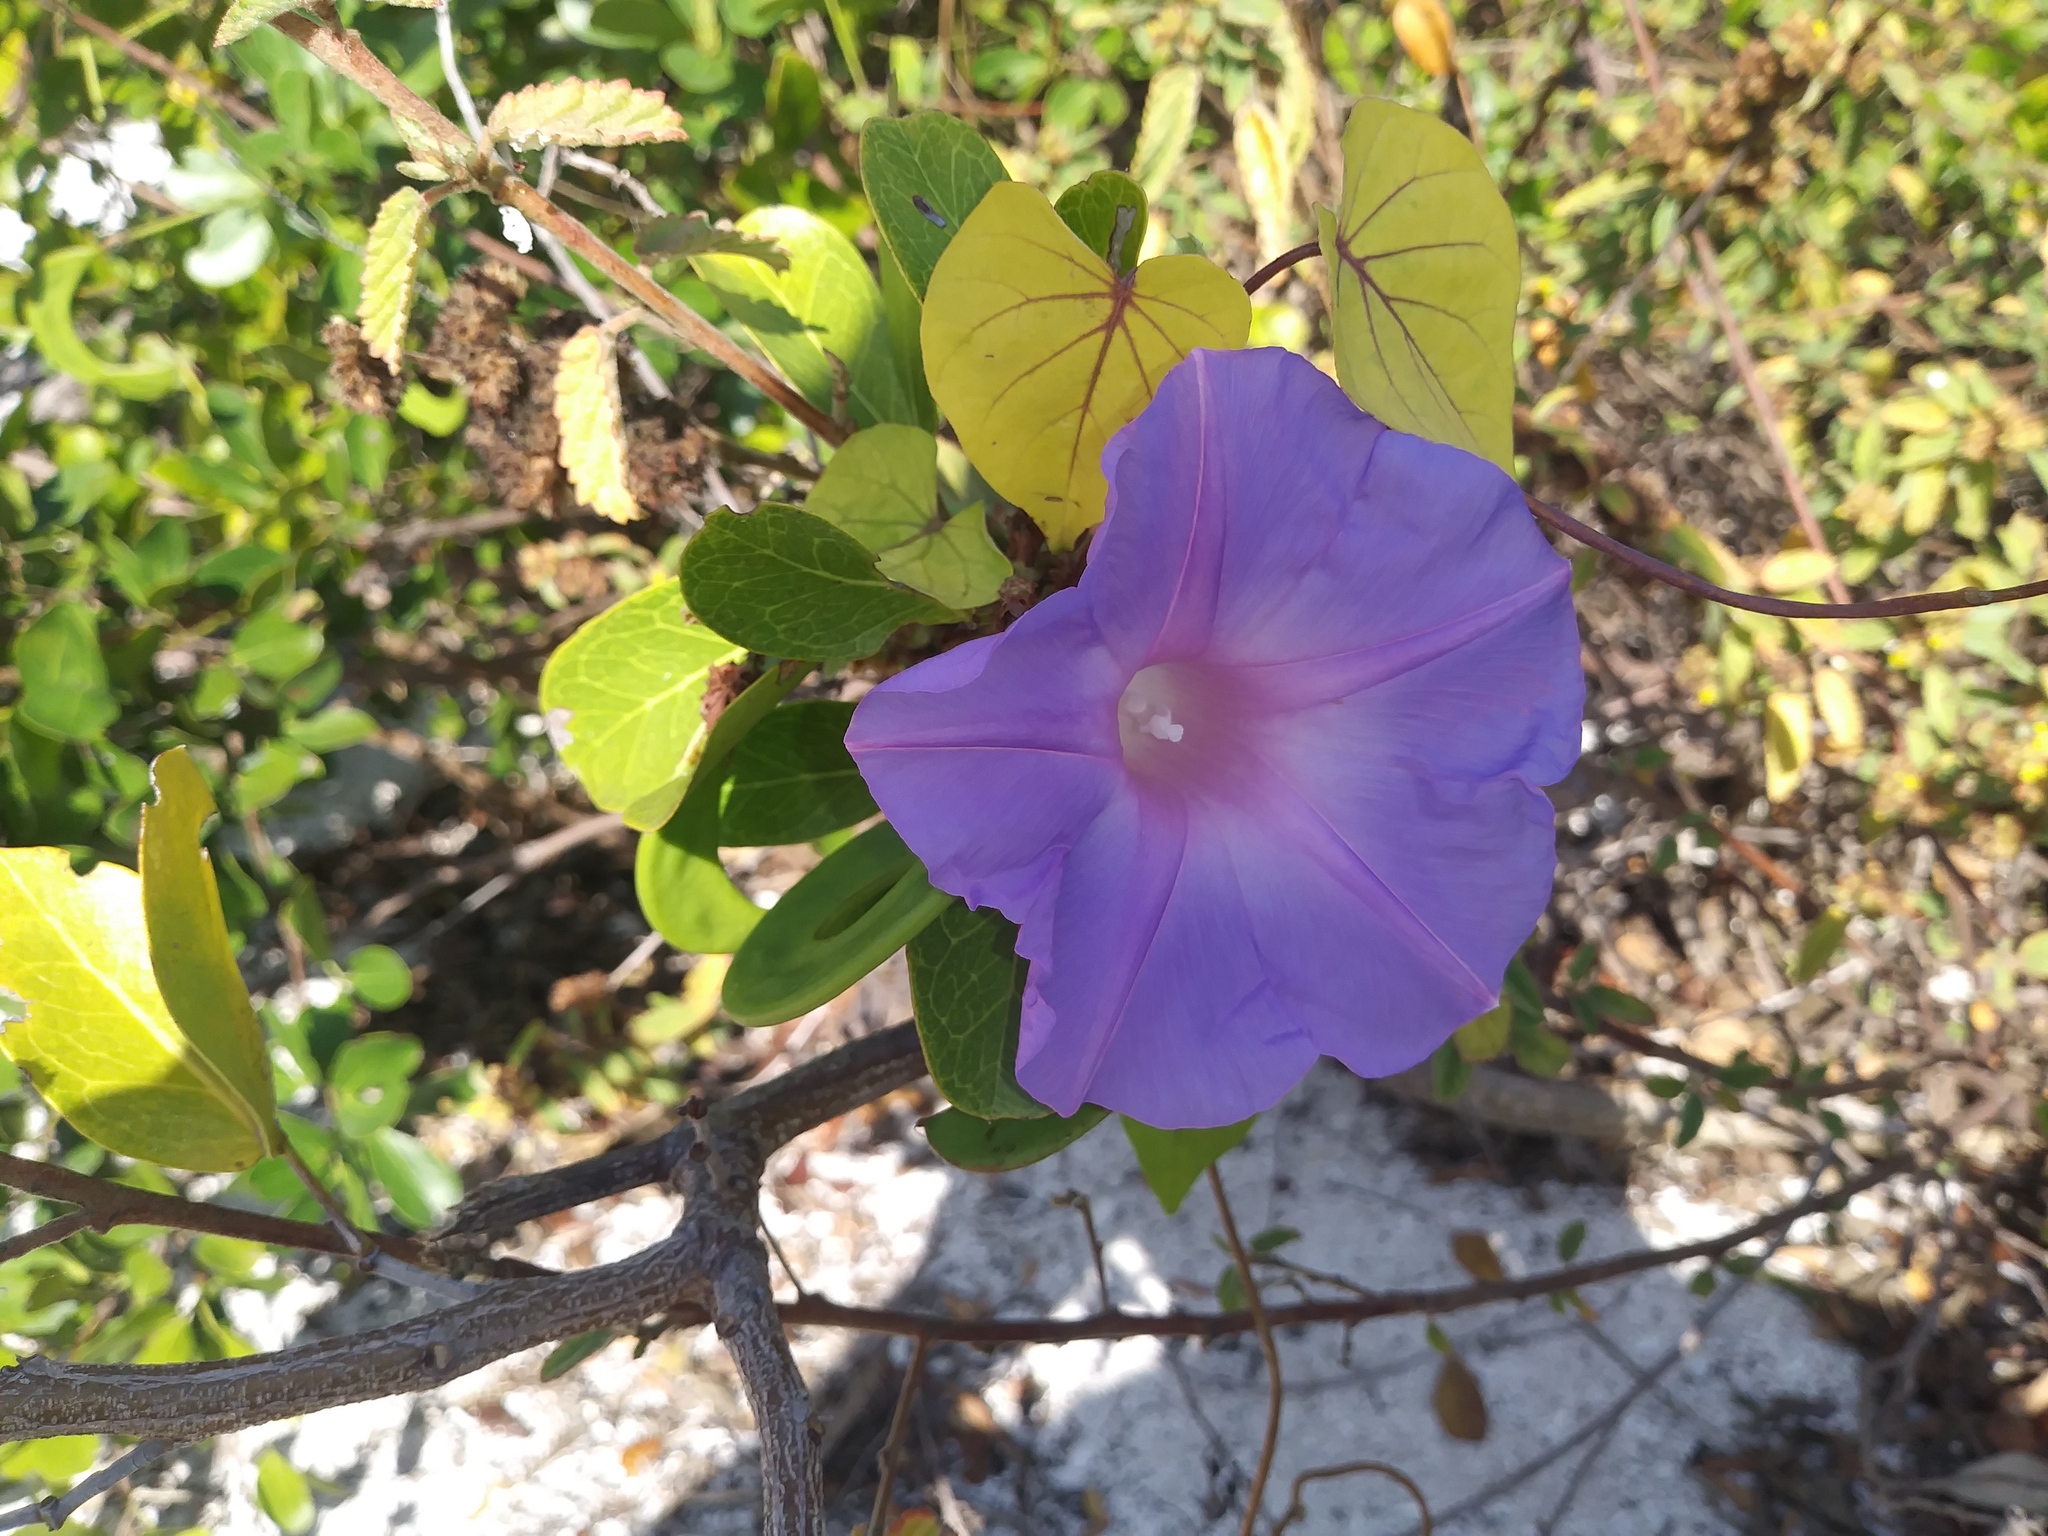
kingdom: Plantae
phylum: Tracheophyta
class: Magnoliopsida
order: Solanales
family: Convolvulaceae
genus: Ipomoea
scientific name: Ipomoea indica
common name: Blue dawnflower
